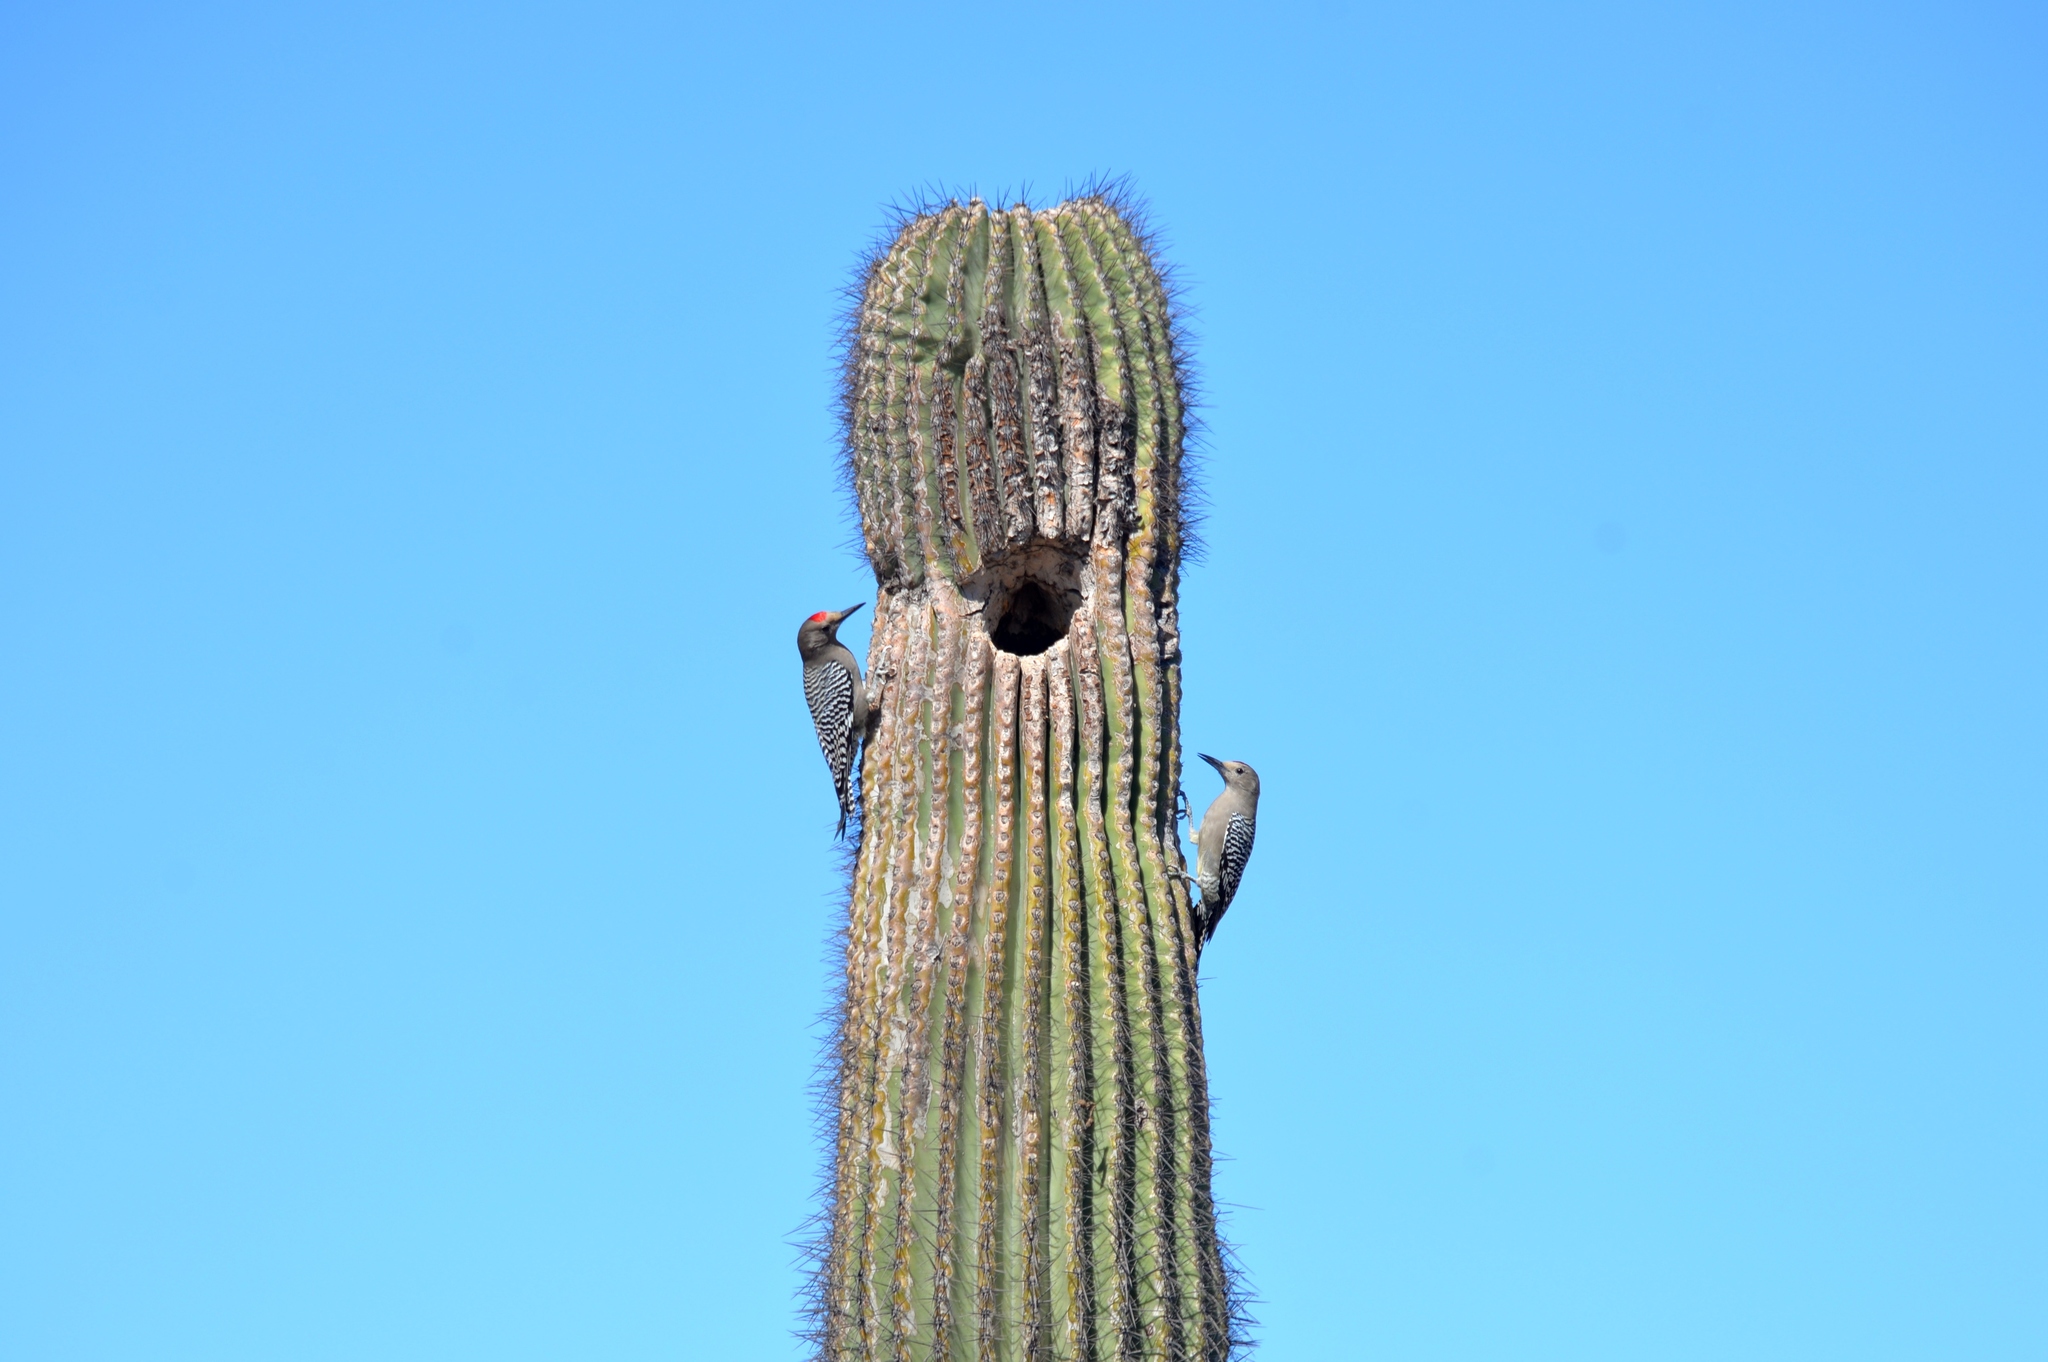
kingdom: Animalia
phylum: Chordata
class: Aves
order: Piciformes
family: Picidae
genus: Melanerpes
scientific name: Melanerpes uropygialis
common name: Gila woodpecker
